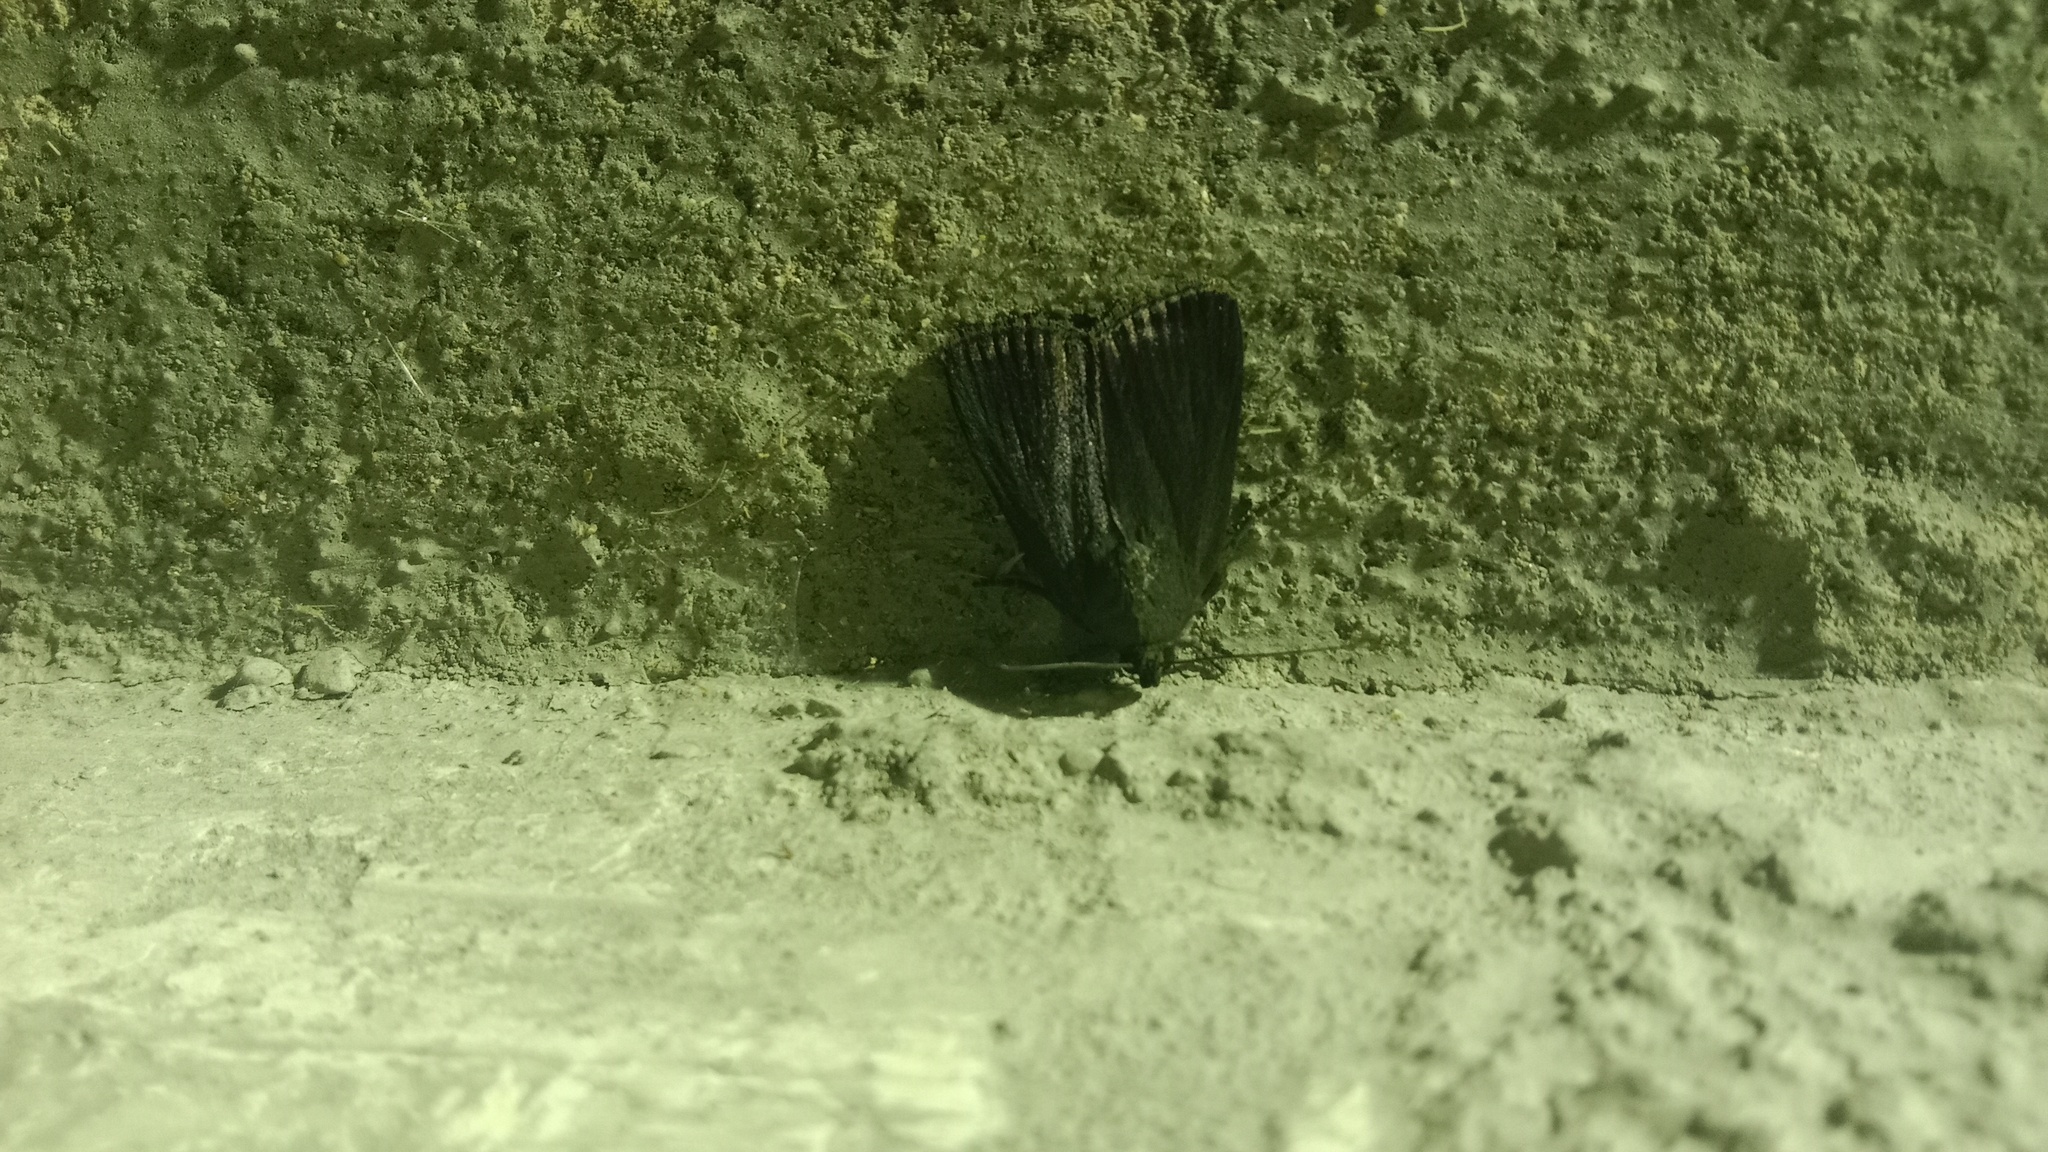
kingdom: Animalia
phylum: Arthropoda
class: Insecta
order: Lepidoptera
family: Noctuidae
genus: Amphipyra
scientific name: Amphipyra livida
